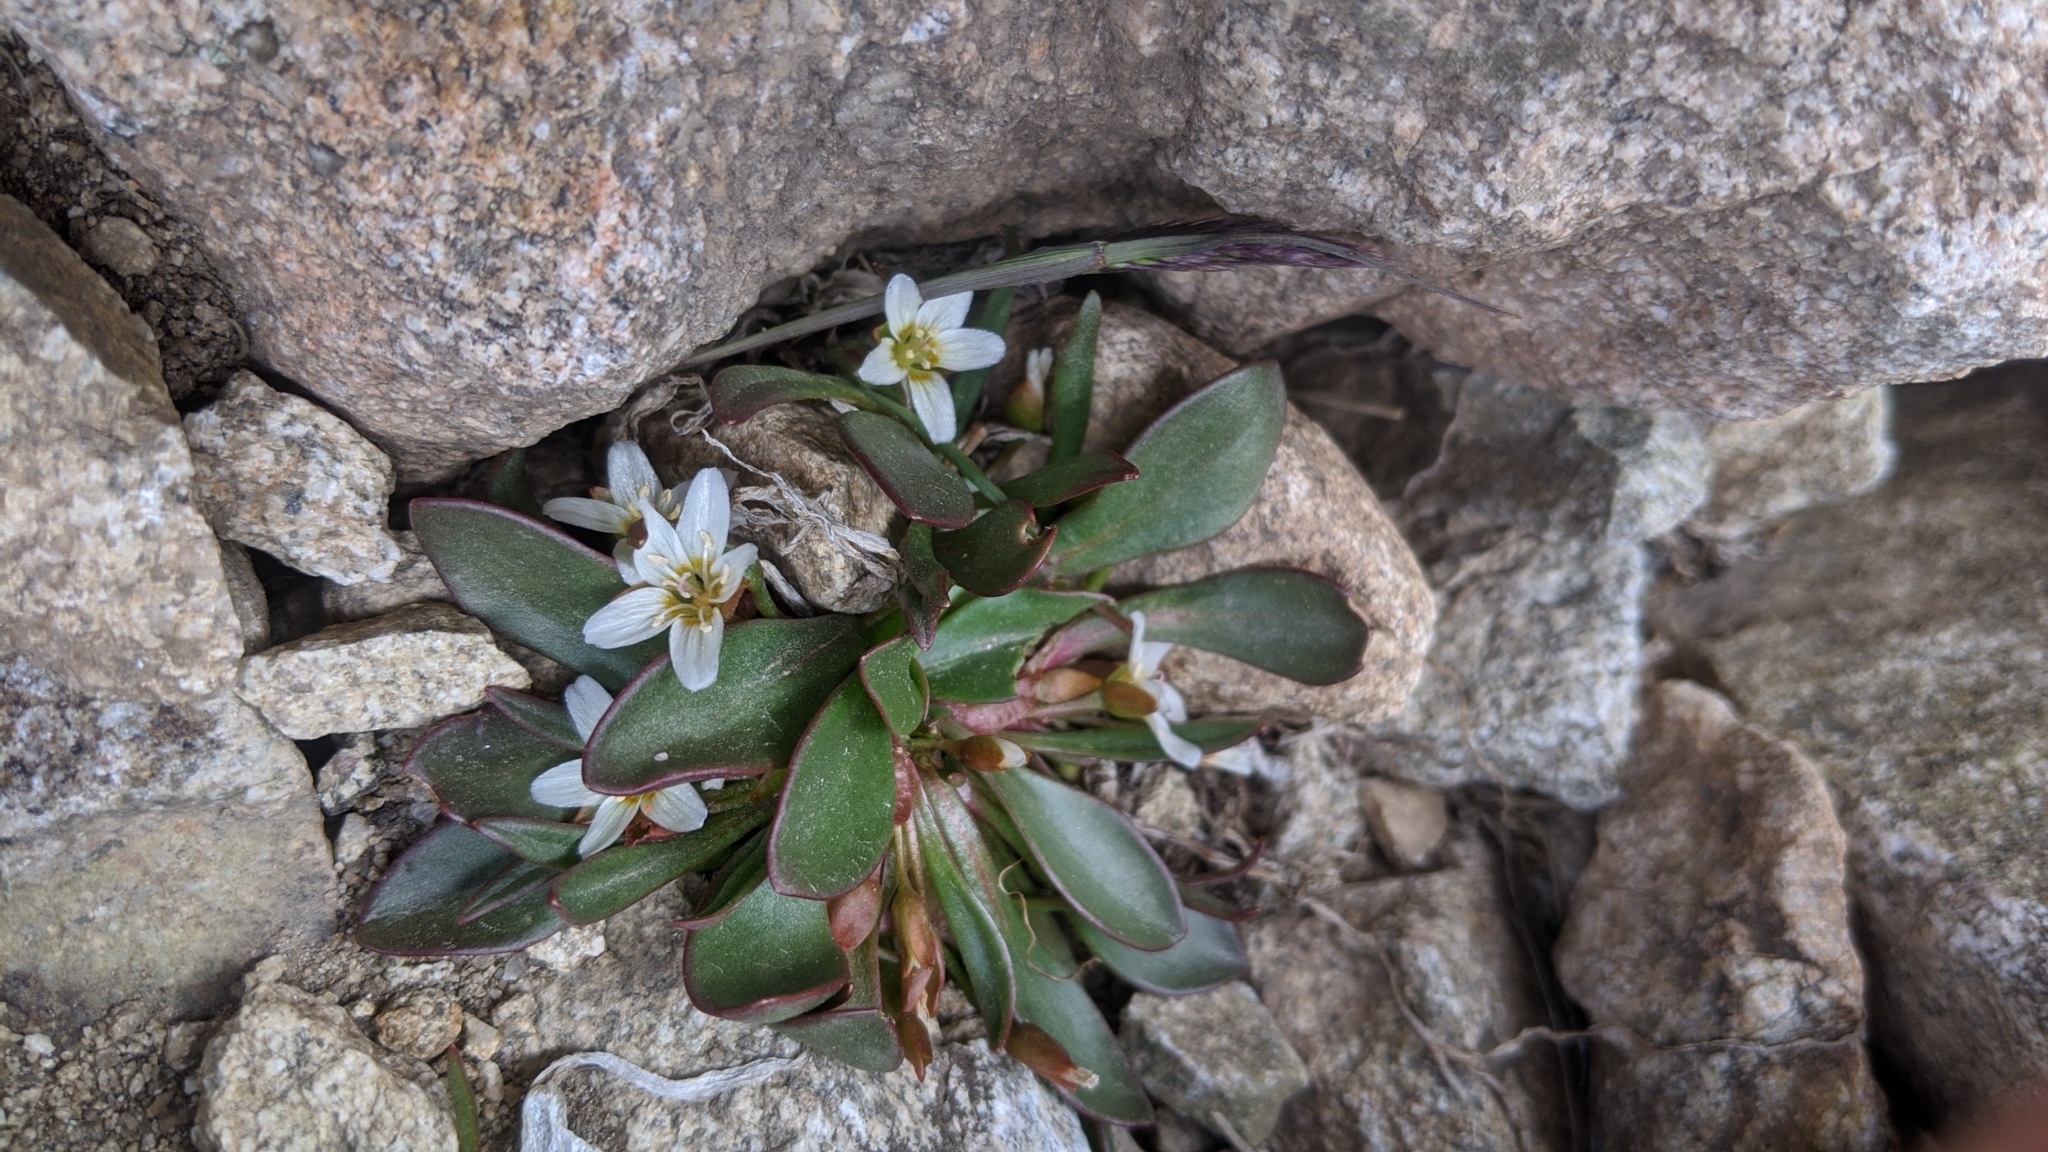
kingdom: Plantae
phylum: Tracheophyta
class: Magnoliopsida
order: Caryophyllales
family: Montiaceae
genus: Claytonia
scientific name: Claytonia megarhiza
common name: Alpine spring beauty
